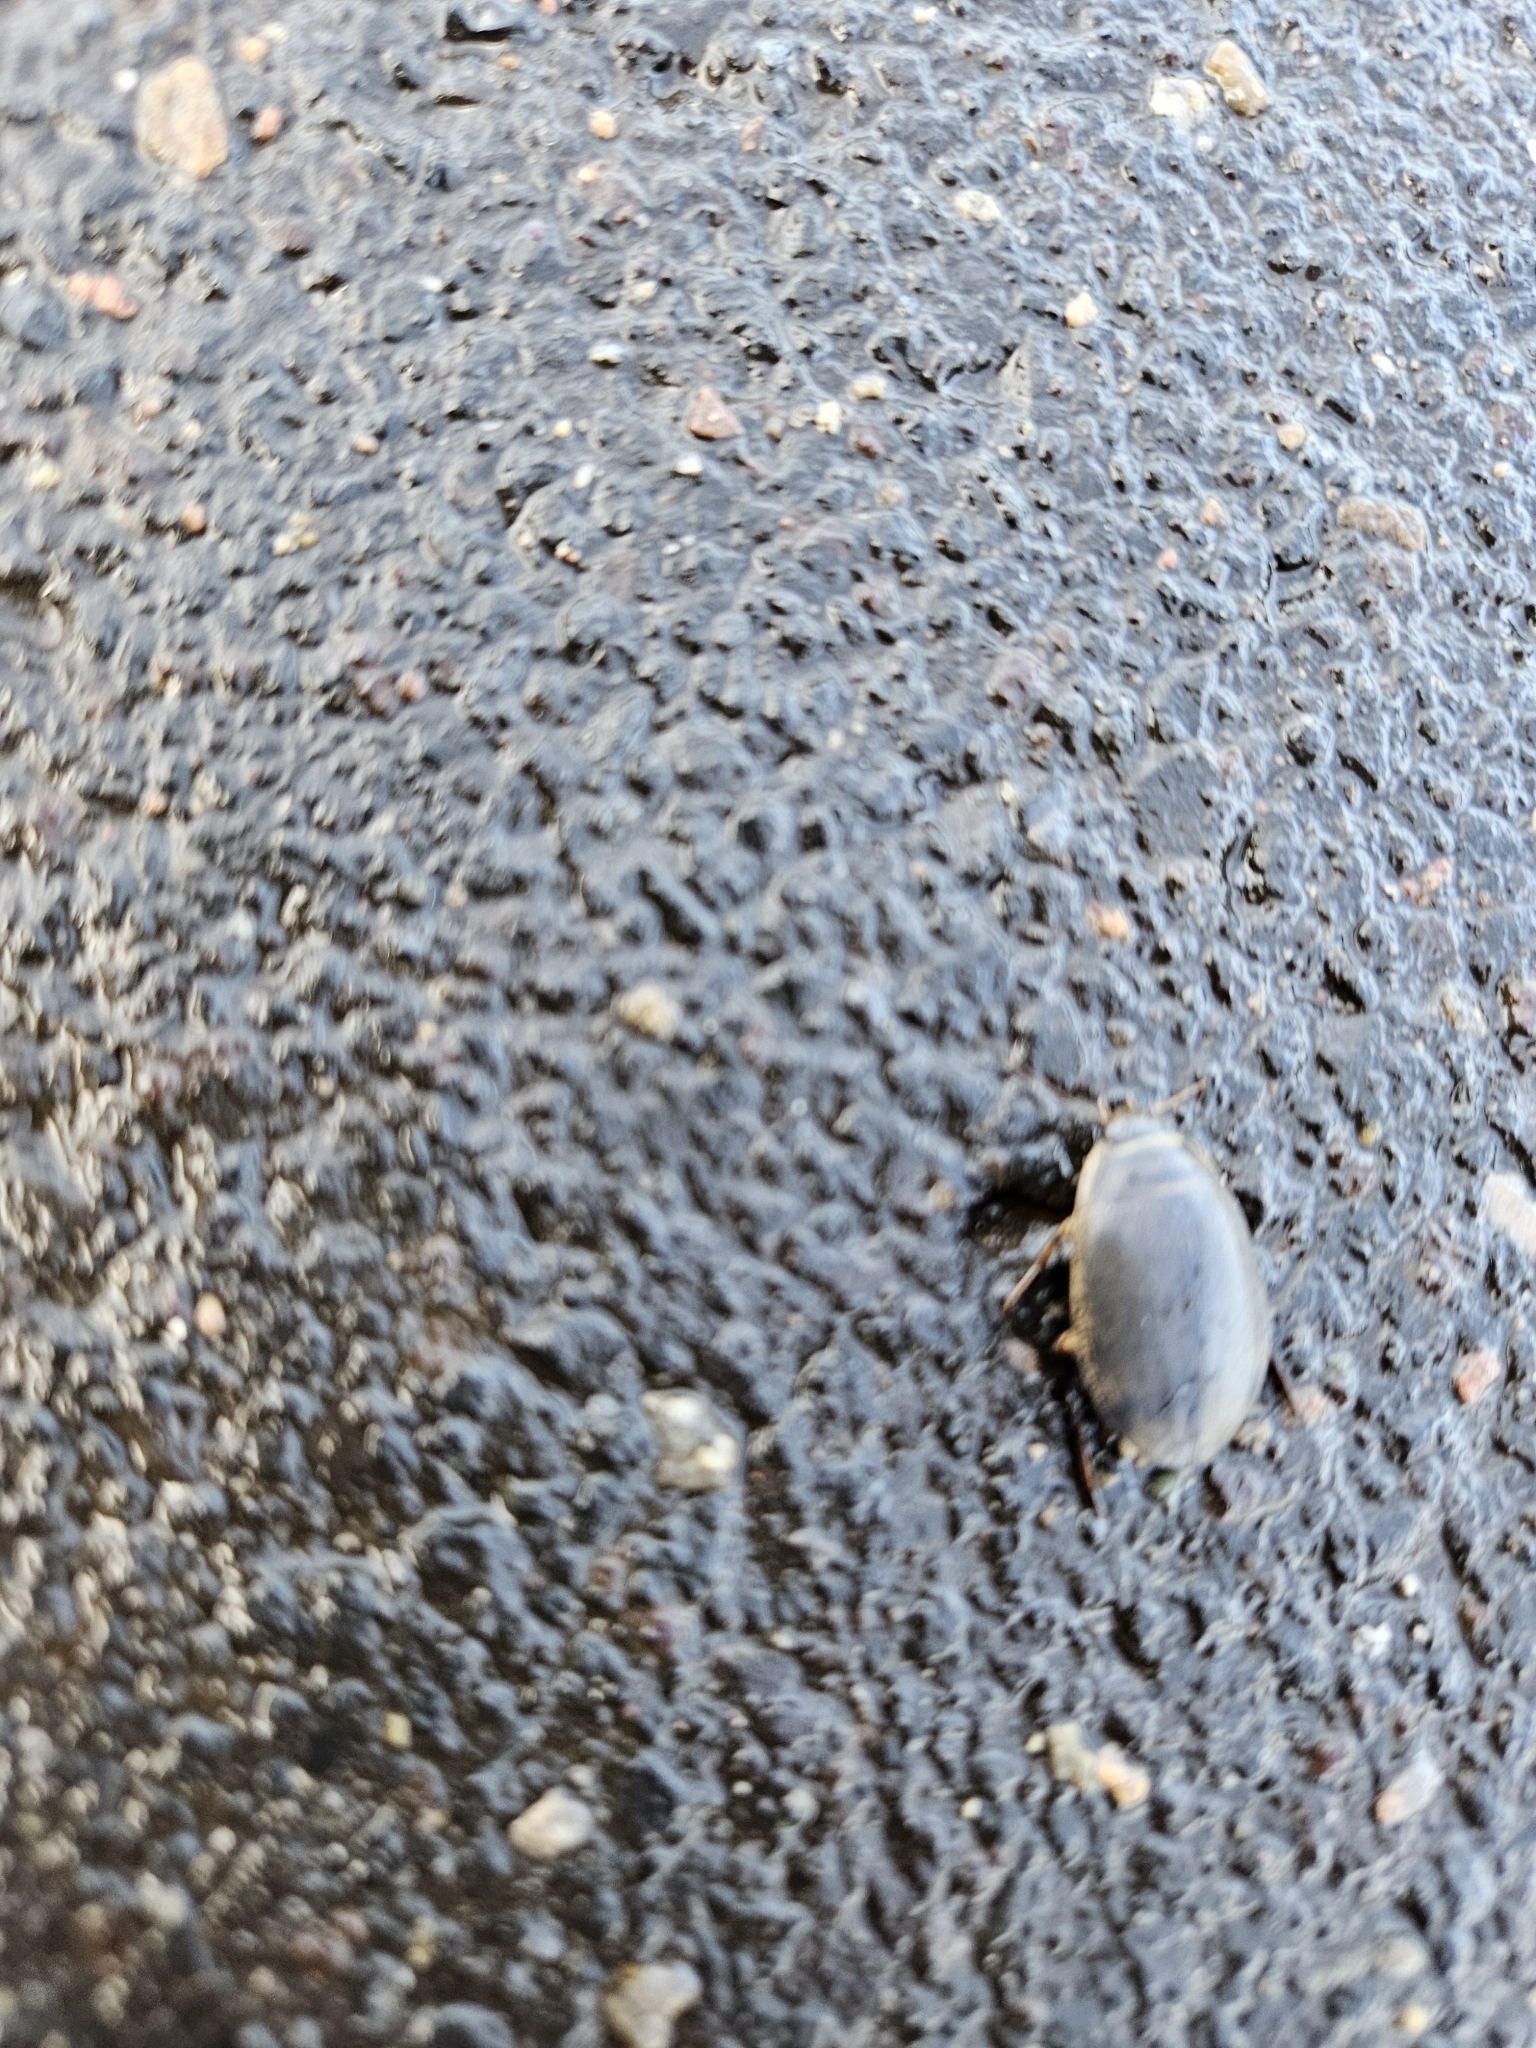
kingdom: Animalia
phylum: Arthropoda
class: Insecta
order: Coleoptera
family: Dytiscidae
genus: Acilius
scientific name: Acilius sulcatus
